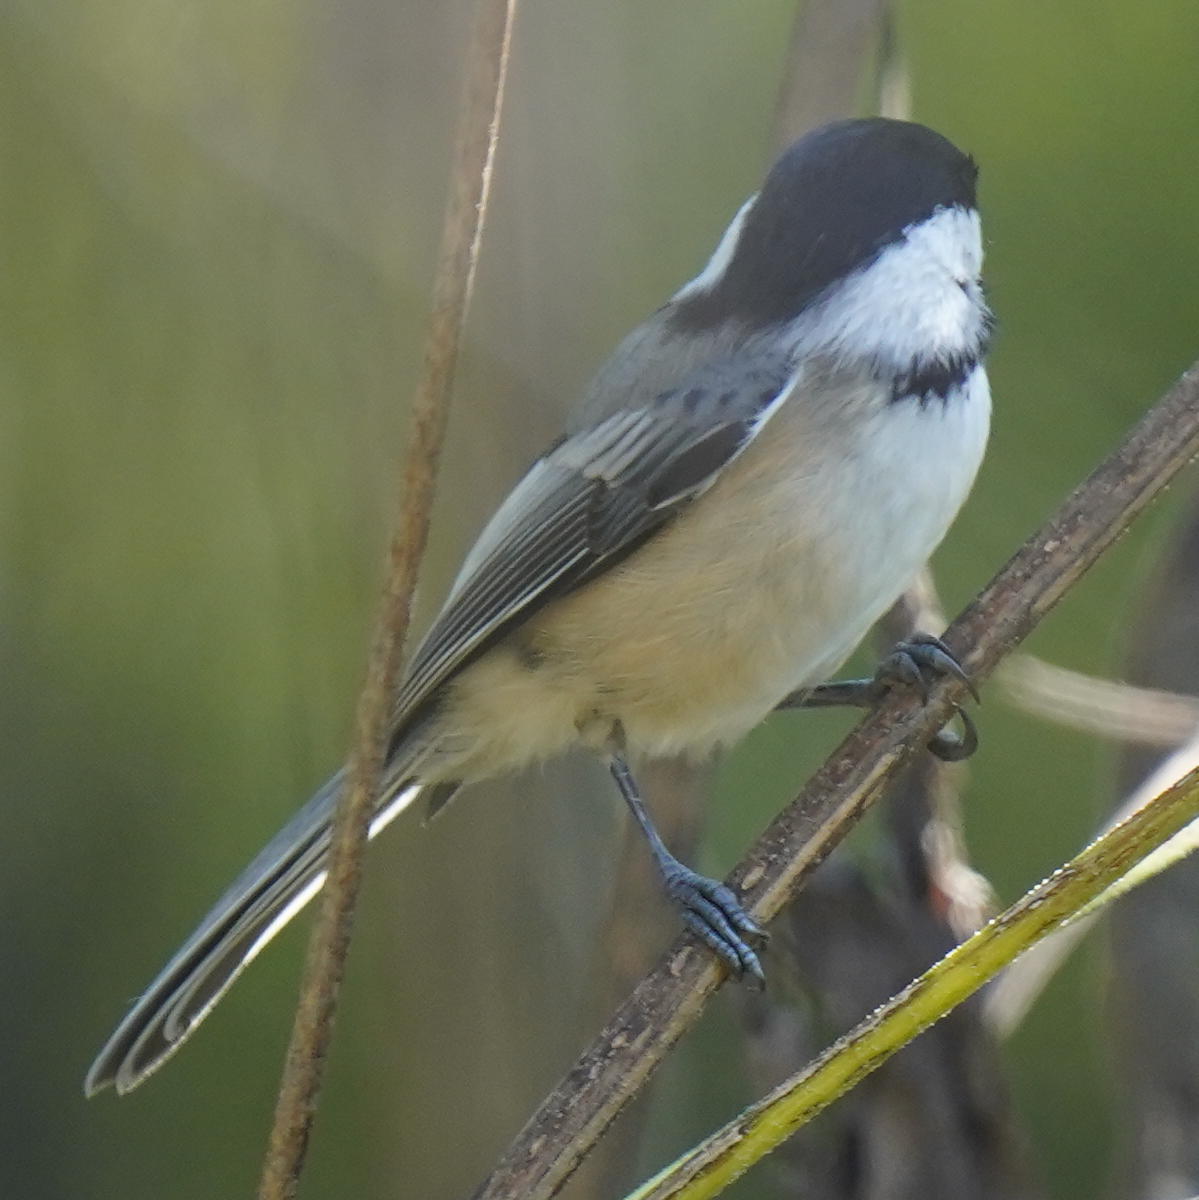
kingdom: Animalia
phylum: Chordata
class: Aves
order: Passeriformes
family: Paridae
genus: Poecile
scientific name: Poecile atricapillus
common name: Black-capped chickadee
